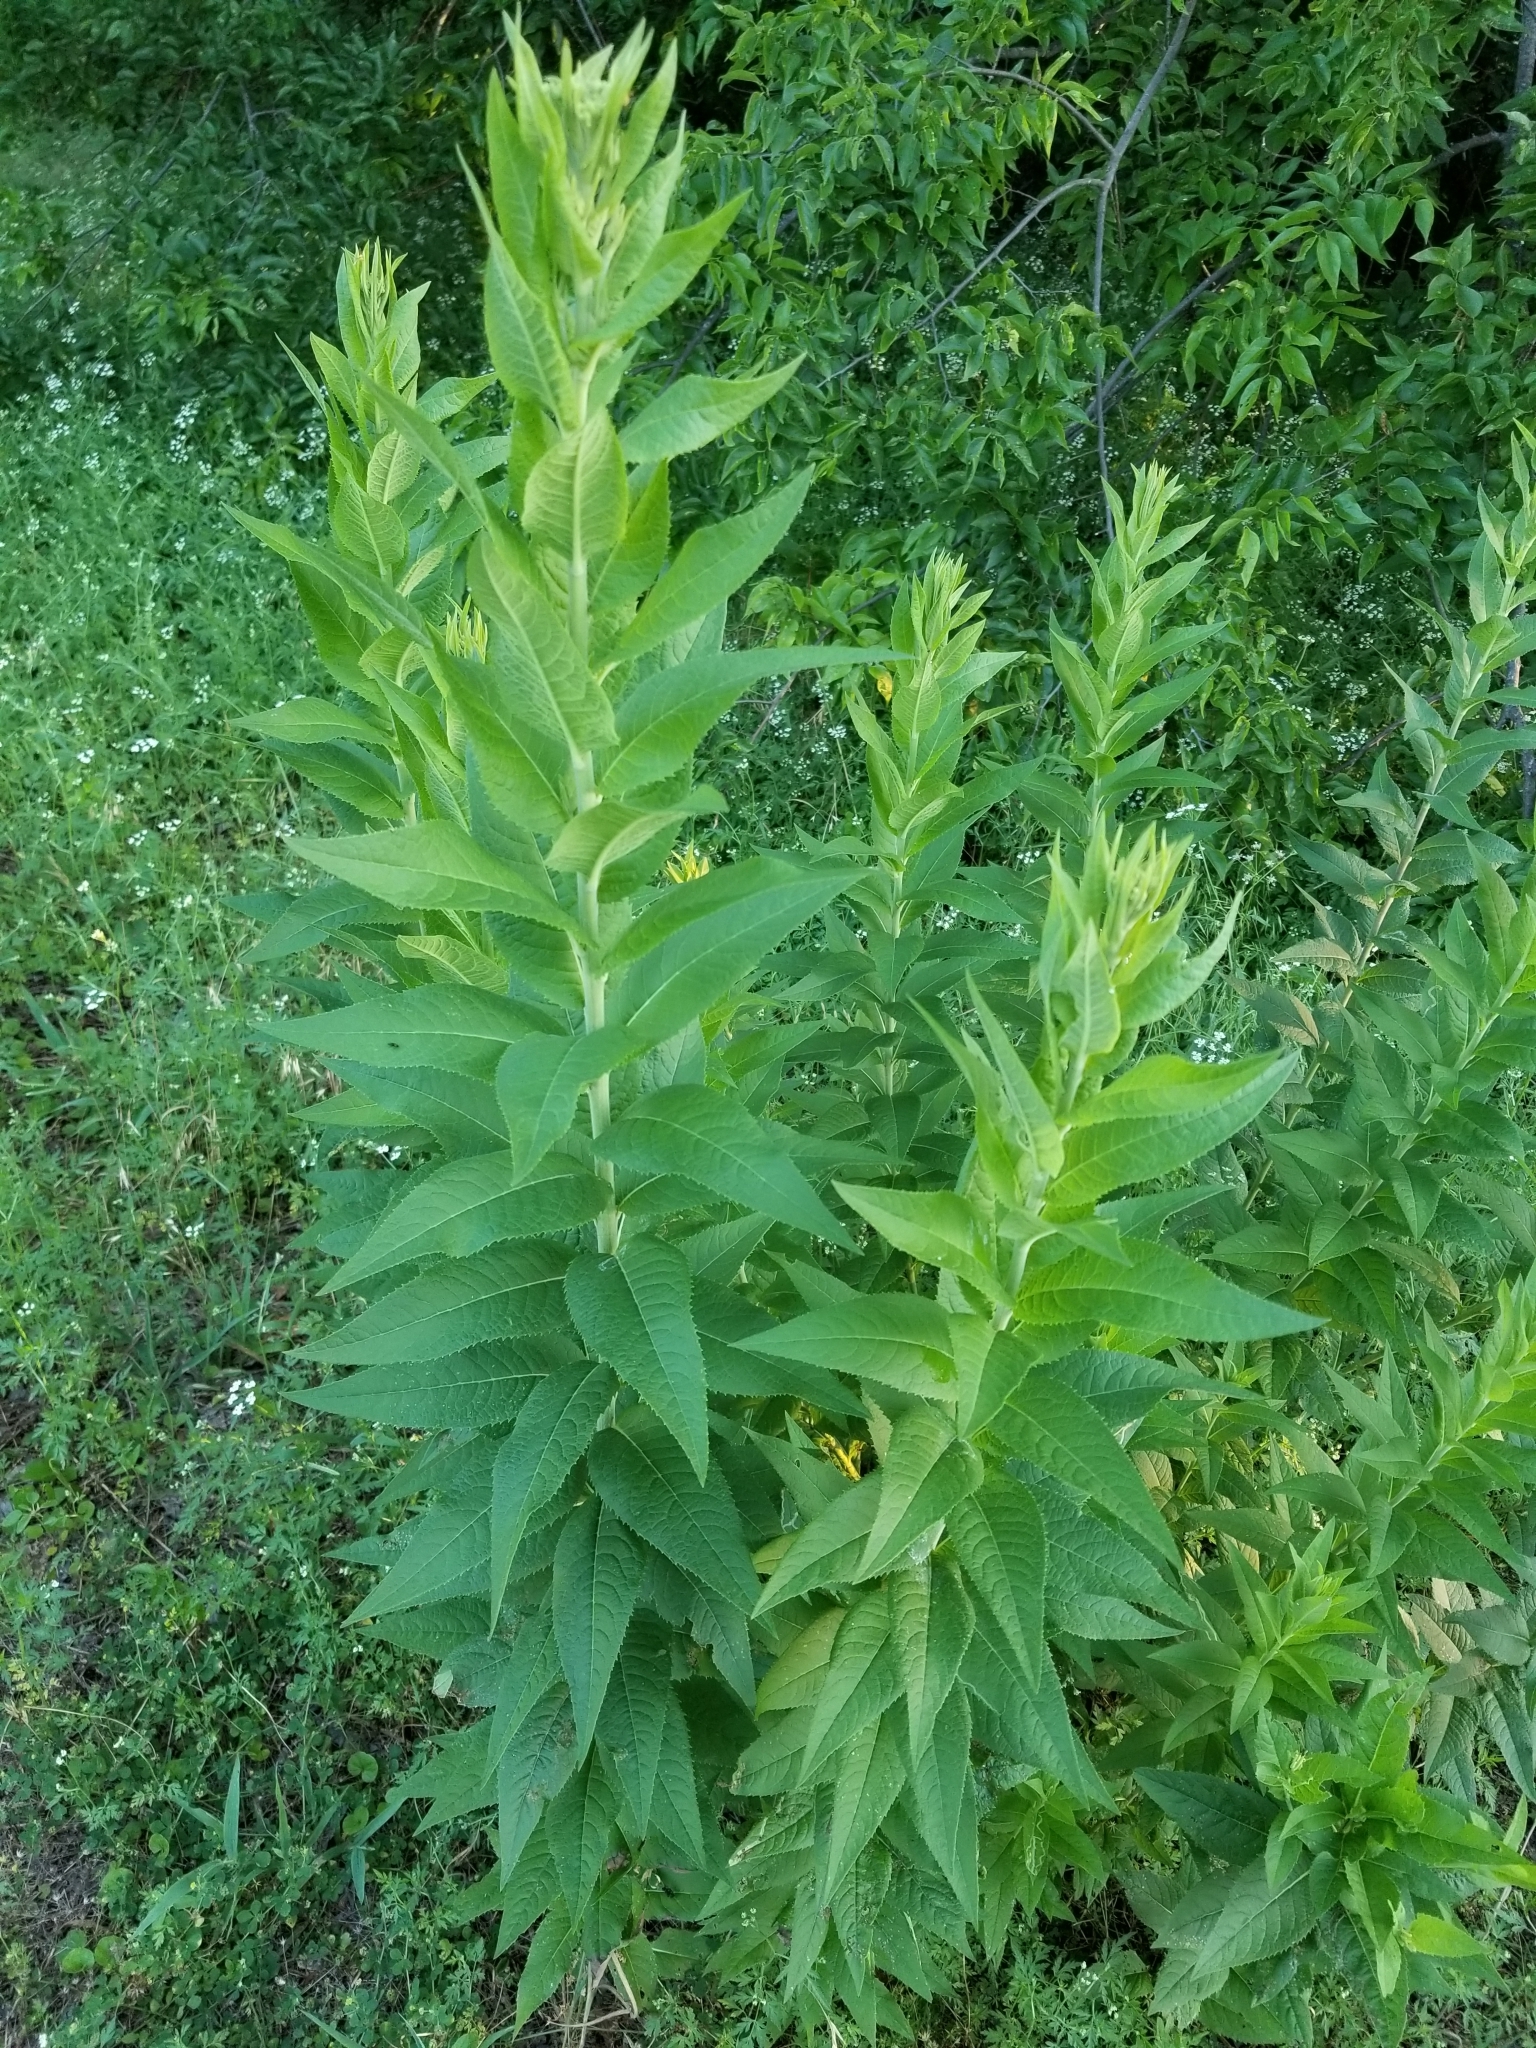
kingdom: Plantae
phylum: Tracheophyta
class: Magnoliopsida
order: Asterales
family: Asteraceae
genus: Vernonia
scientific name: Vernonia baldwinii
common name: Western ironweed
